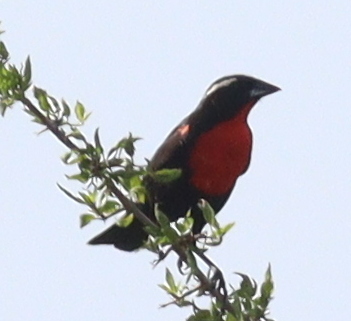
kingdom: Animalia
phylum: Chordata
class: Aves
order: Passeriformes
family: Icteridae
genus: Sturnella
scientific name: Sturnella superciliaris
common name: White-browed blackbird
